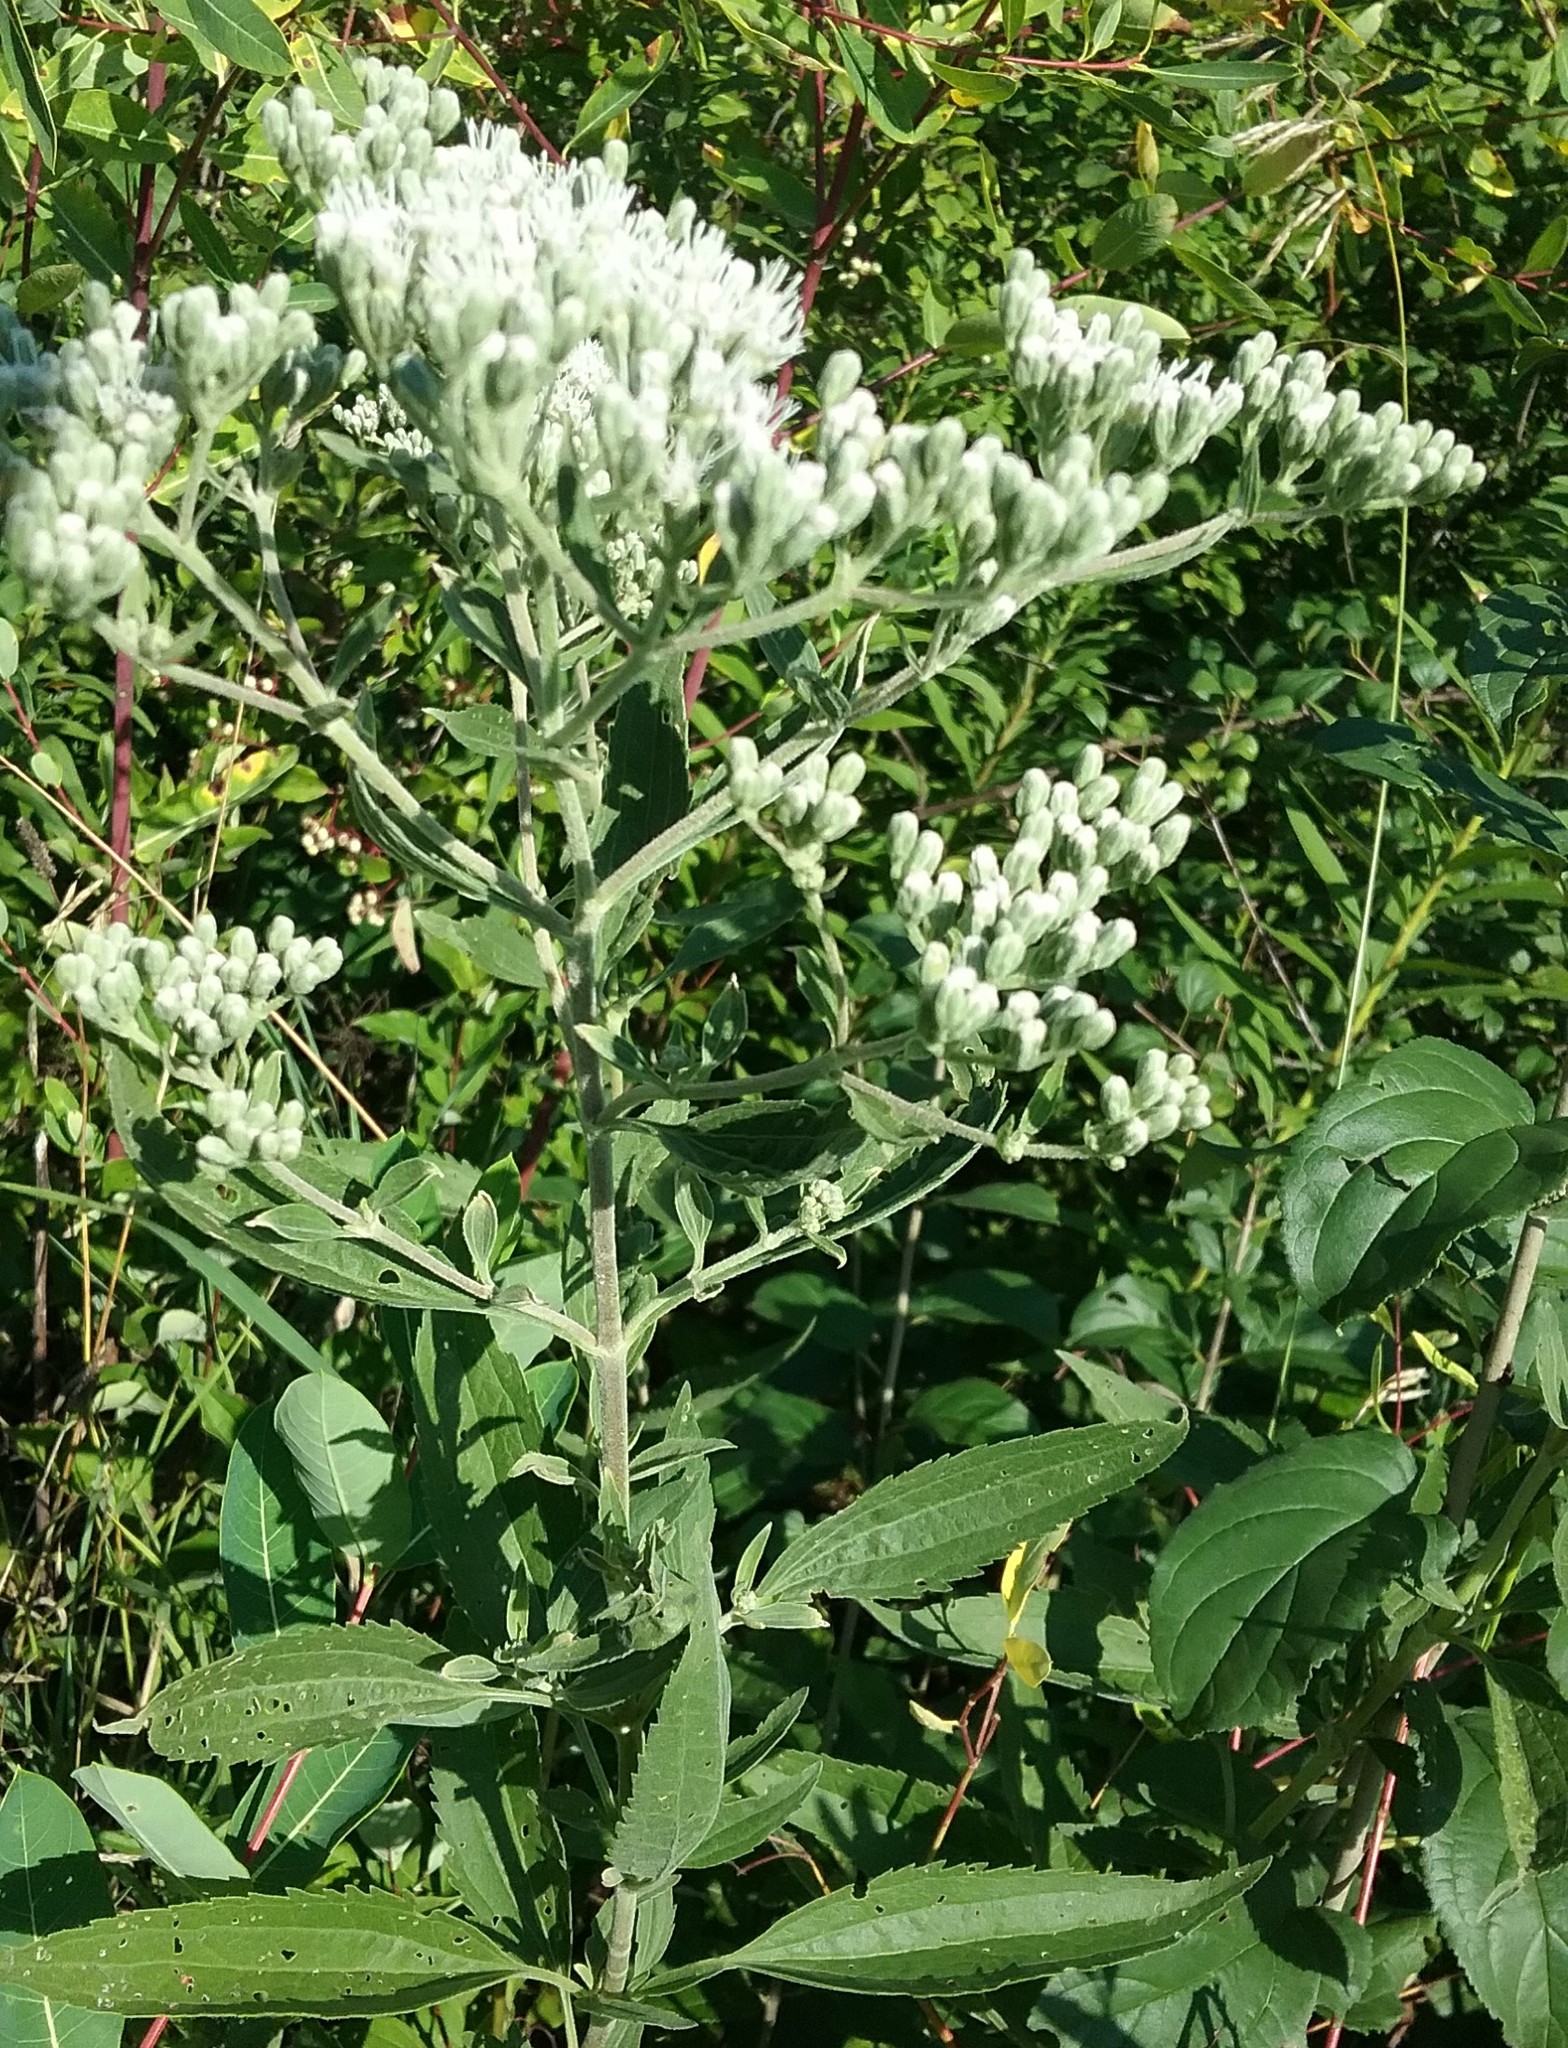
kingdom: Plantae
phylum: Tracheophyta
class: Magnoliopsida
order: Asterales
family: Asteraceae
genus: Eupatorium
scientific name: Eupatorium serotinum
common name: Late boneset
